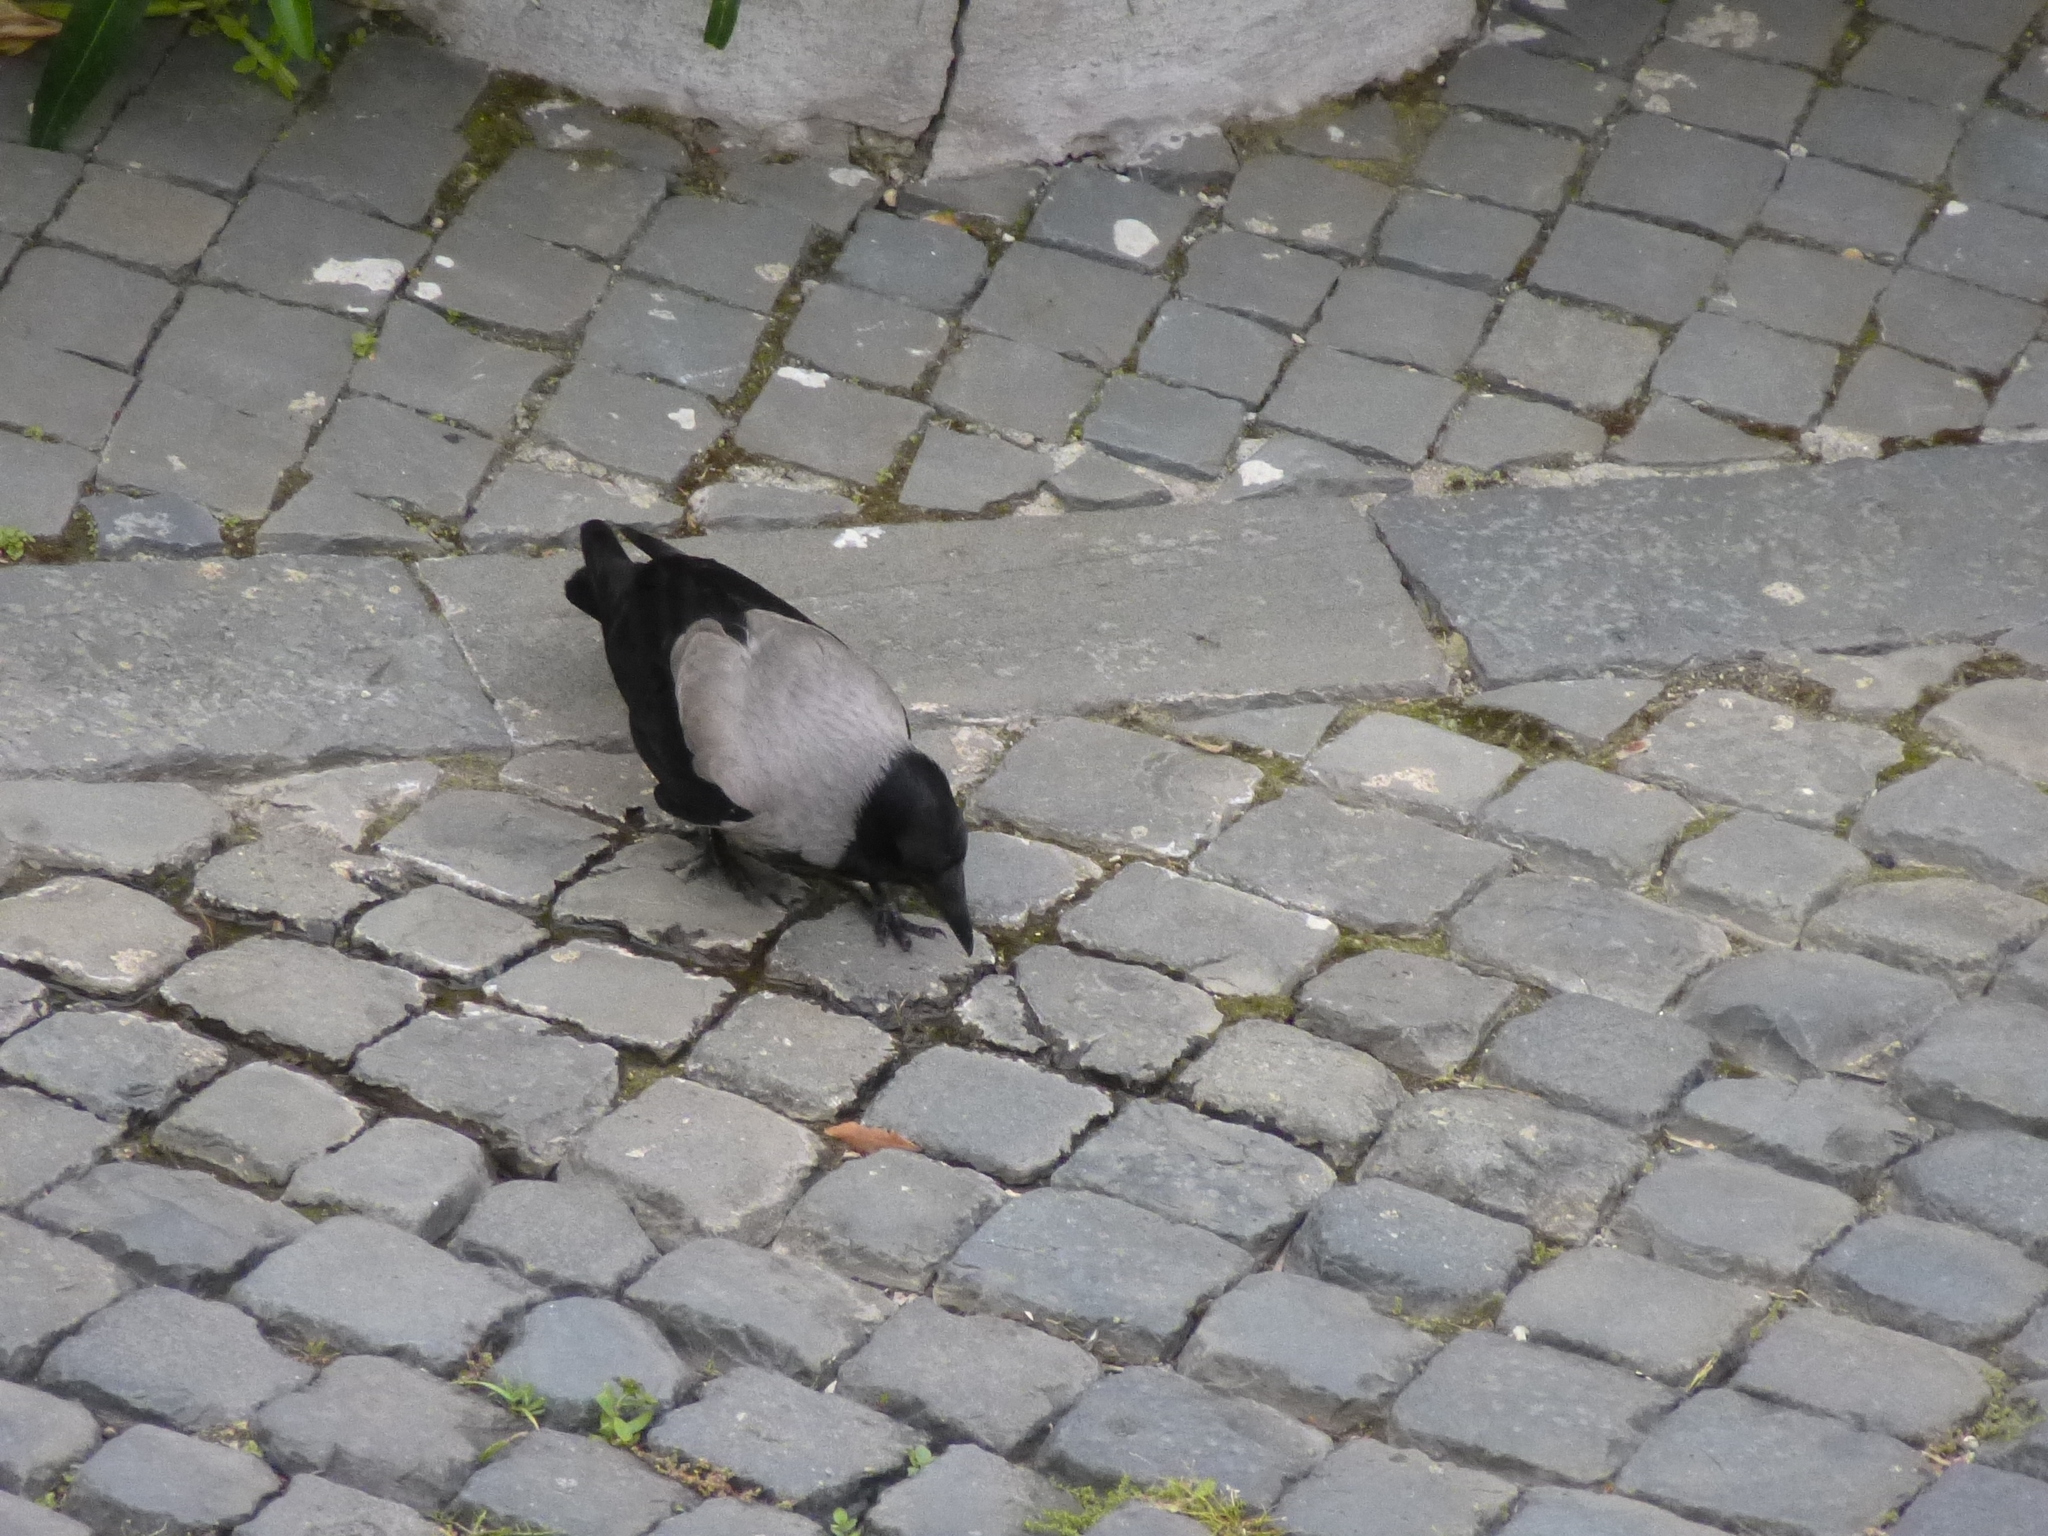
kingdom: Animalia
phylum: Chordata
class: Aves
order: Passeriformes
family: Corvidae
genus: Corvus
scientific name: Corvus cornix
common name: Hooded crow
